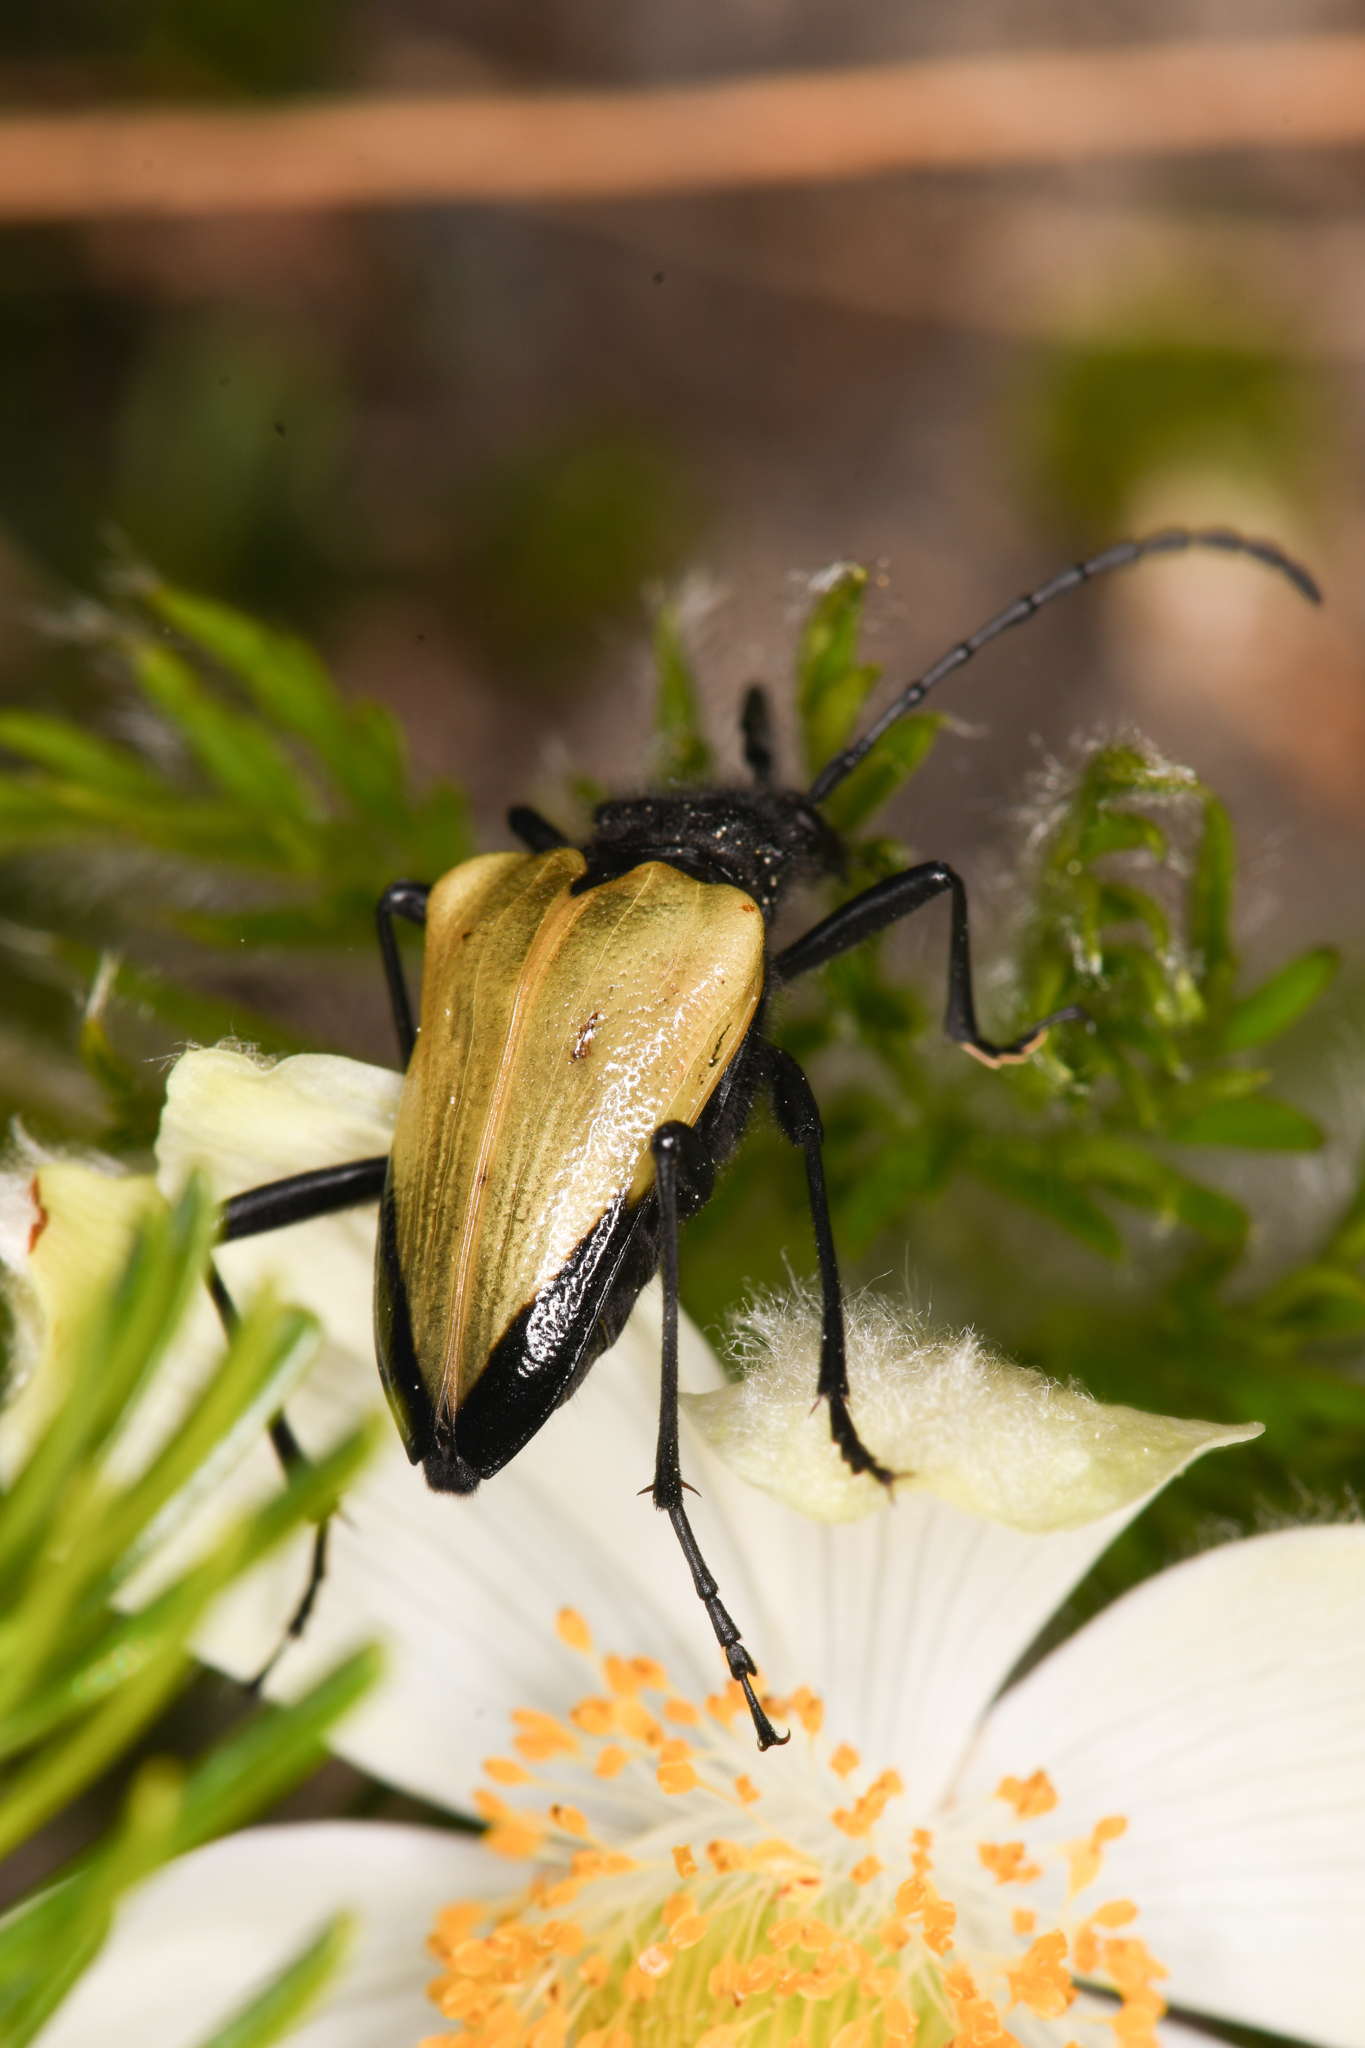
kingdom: Animalia
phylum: Arthropoda
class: Insecta
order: Coleoptera
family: Cerambycidae
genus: Pachyta
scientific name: Pachyta armata
